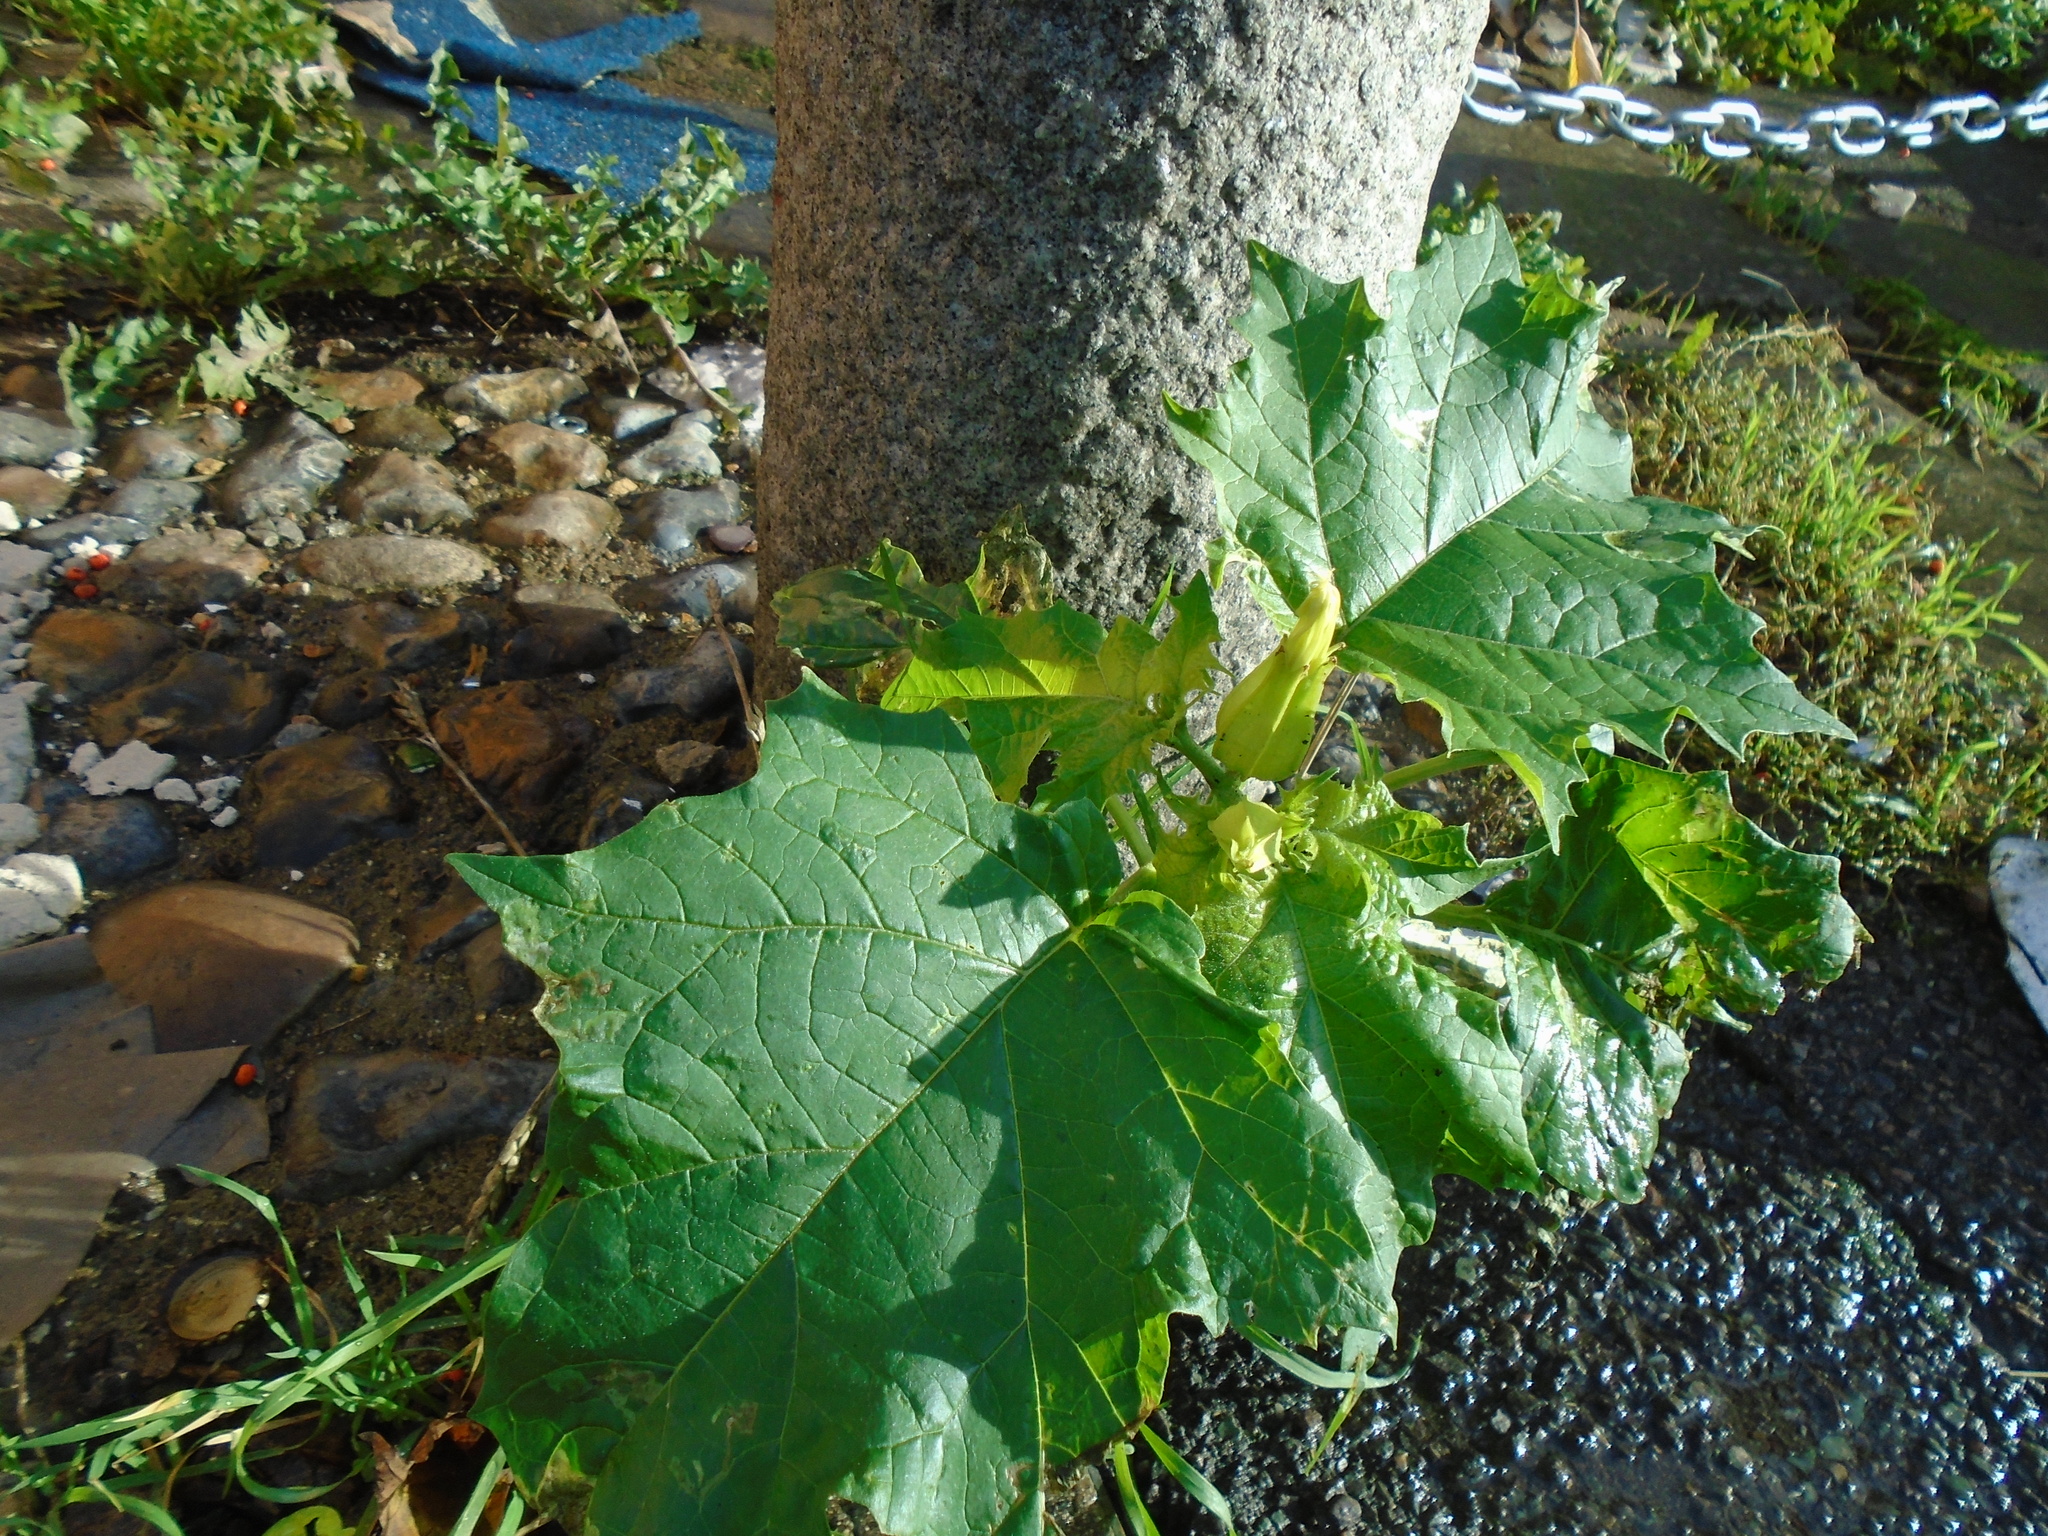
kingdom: Plantae
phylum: Tracheophyta
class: Magnoliopsida
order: Solanales
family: Solanaceae
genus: Datura
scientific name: Datura stramonium
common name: Thorn-apple
